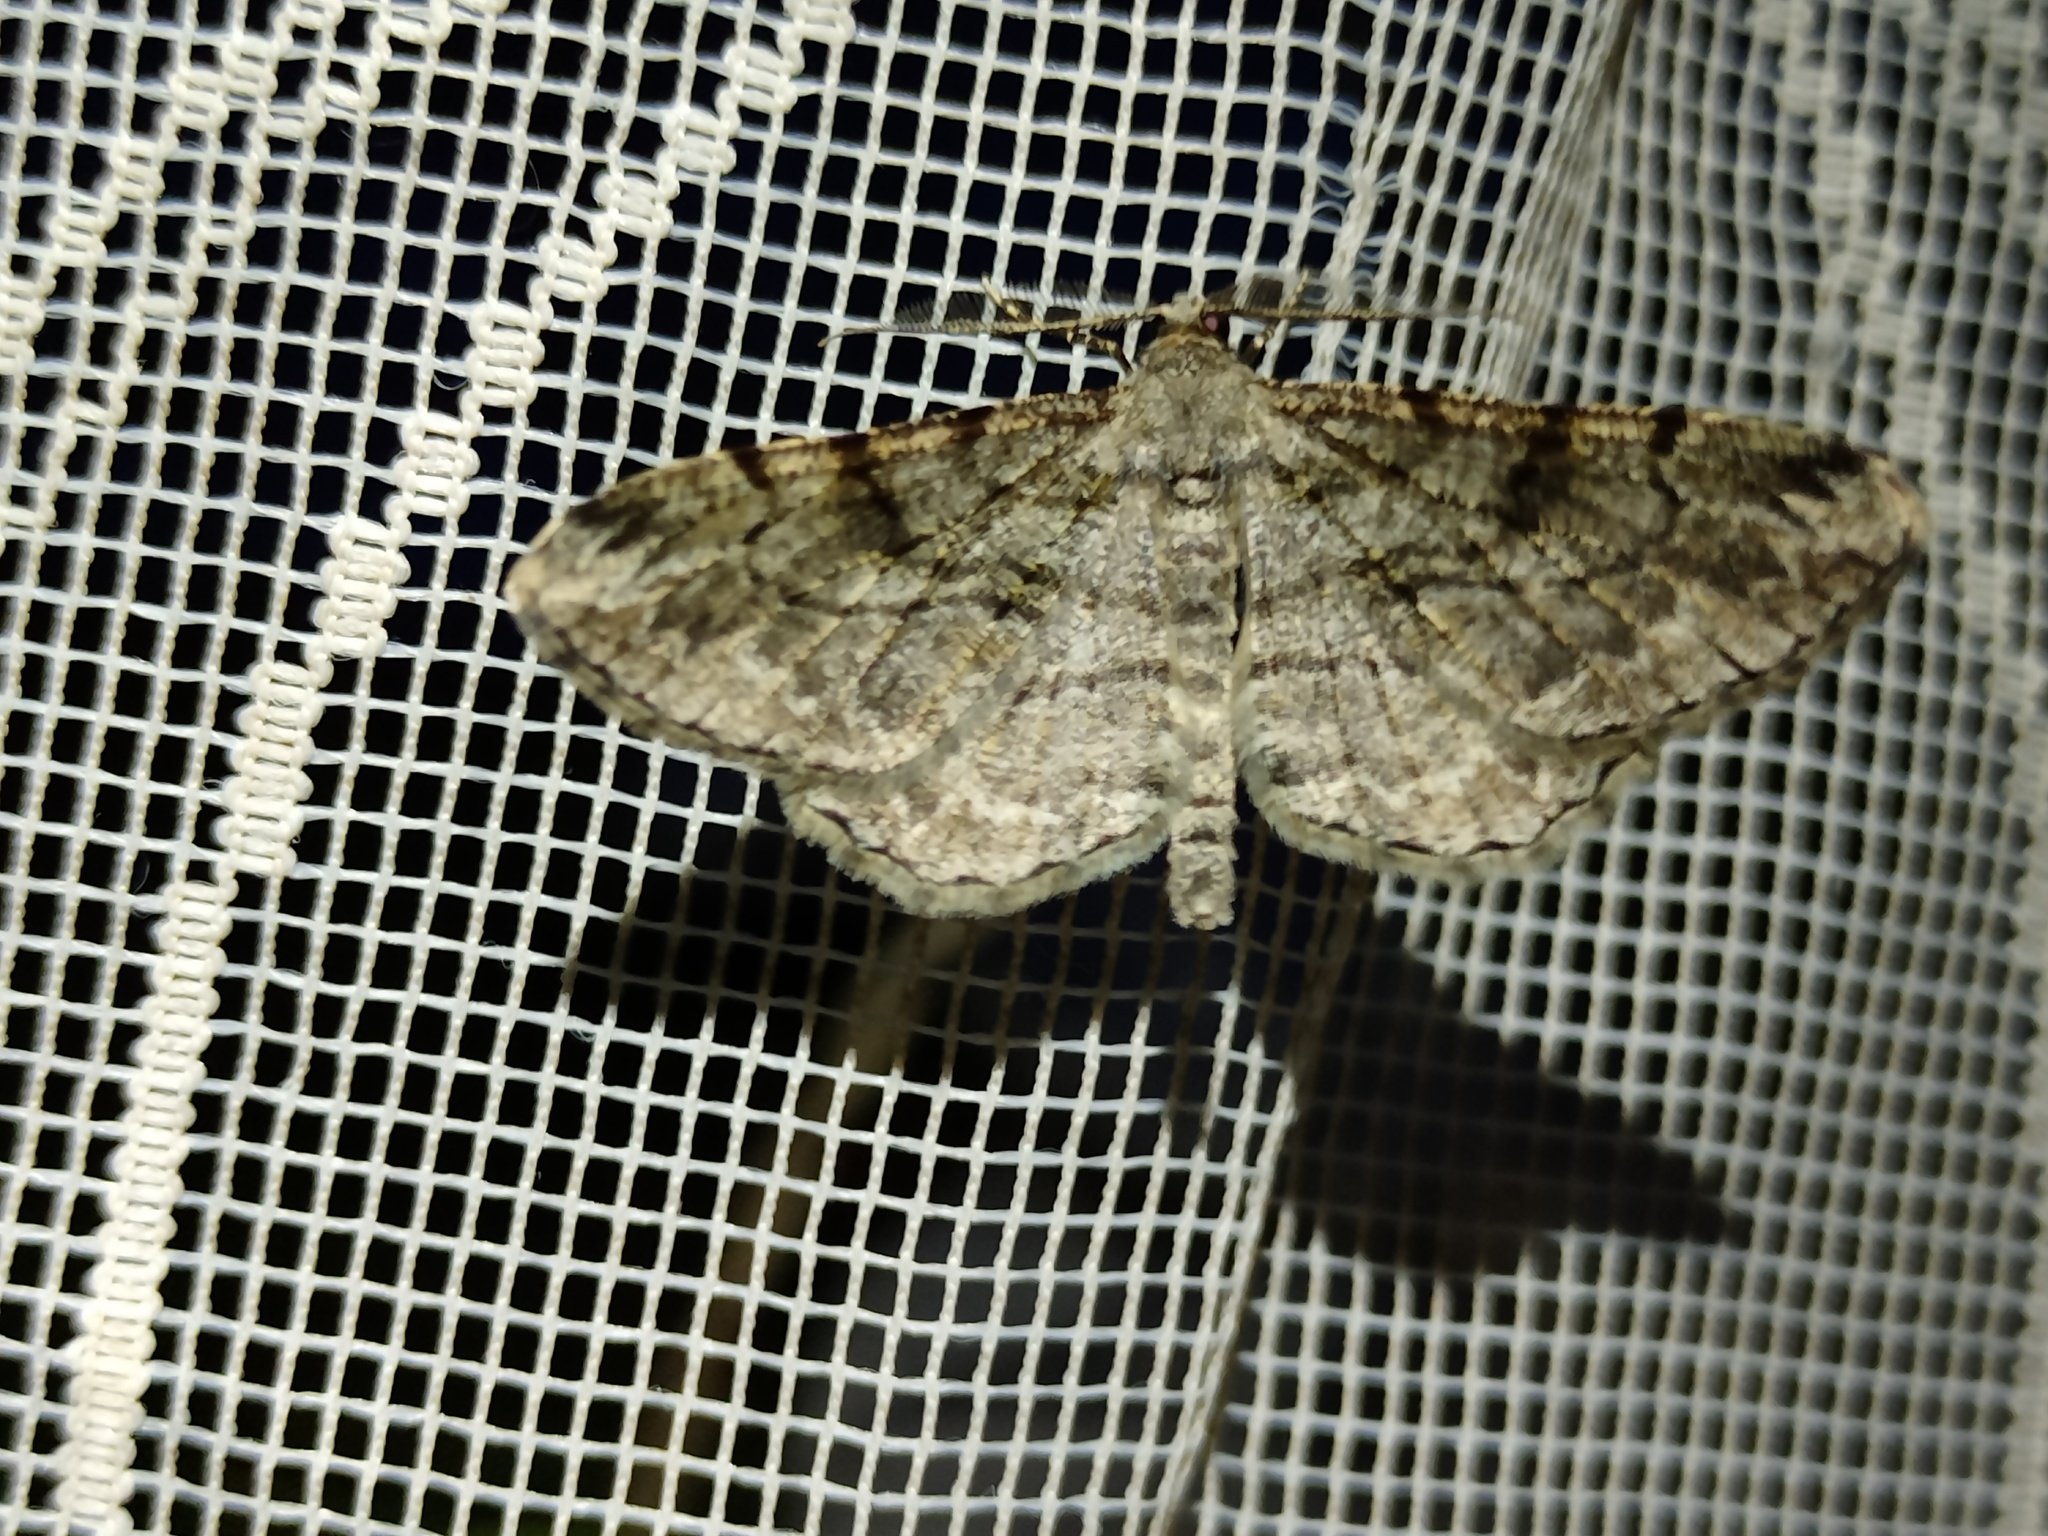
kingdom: Animalia
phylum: Arthropoda
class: Insecta
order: Lepidoptera
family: Geometridae
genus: Peribatodes
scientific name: Peribatodes rhomboidaria
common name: Willow beauty
